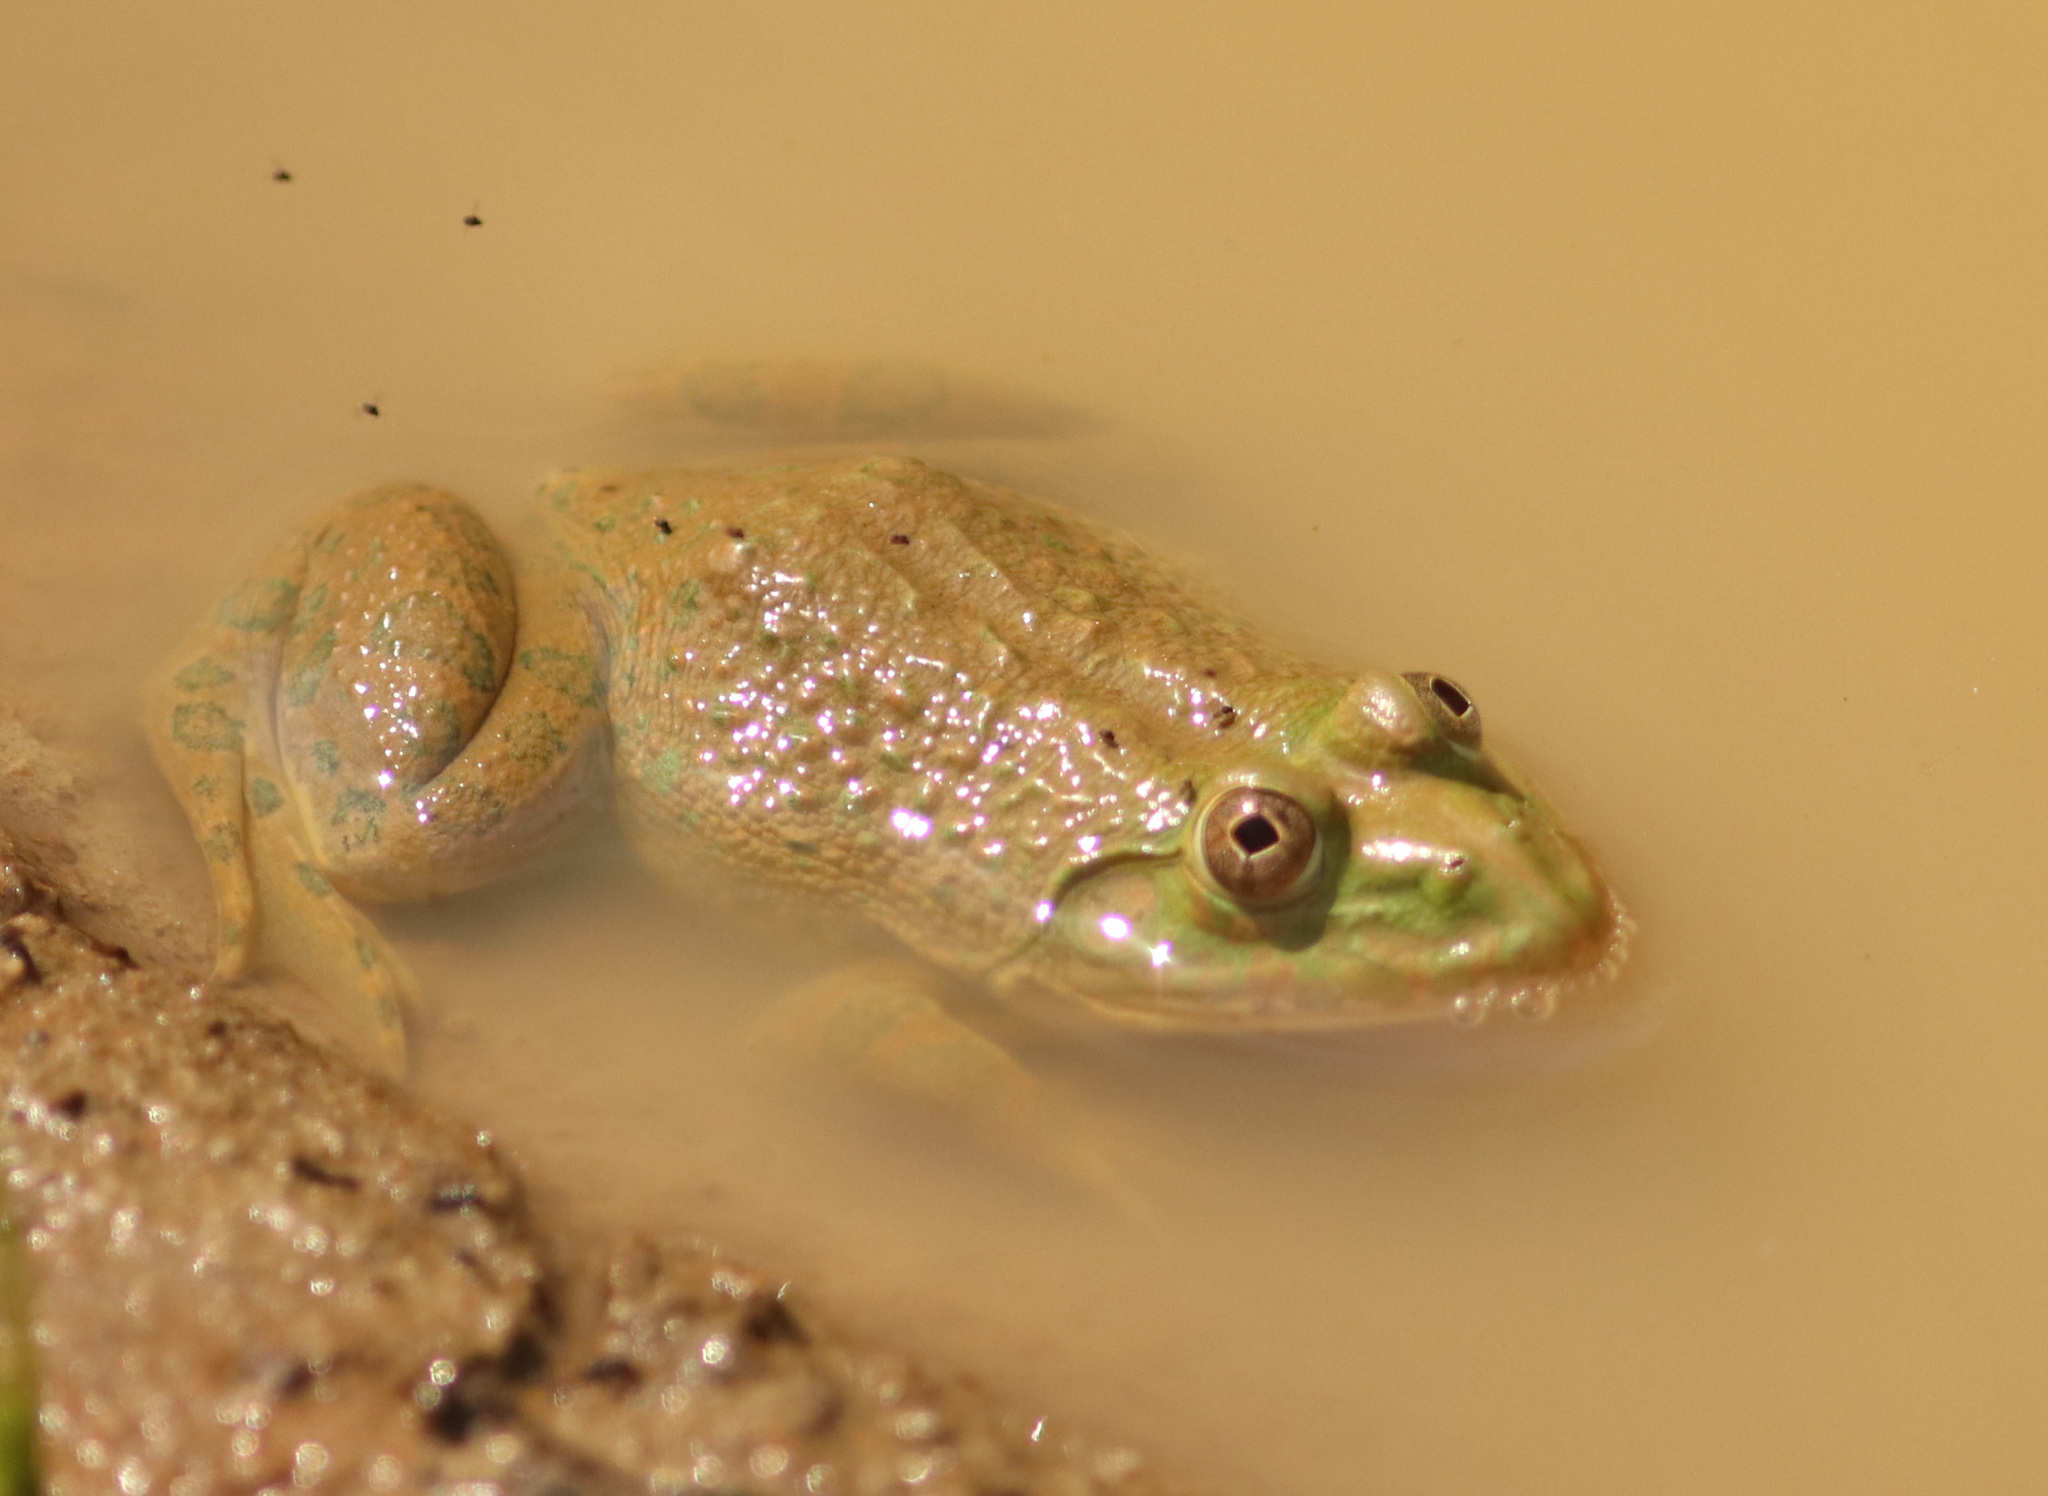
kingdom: Animalia
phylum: Chordata
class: Amphibia
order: Anura
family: Dicroglossidae
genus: Hoplobatrachus
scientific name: Hoplobatrachus occipitalis
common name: Eastern groove-crowned bullfrog
